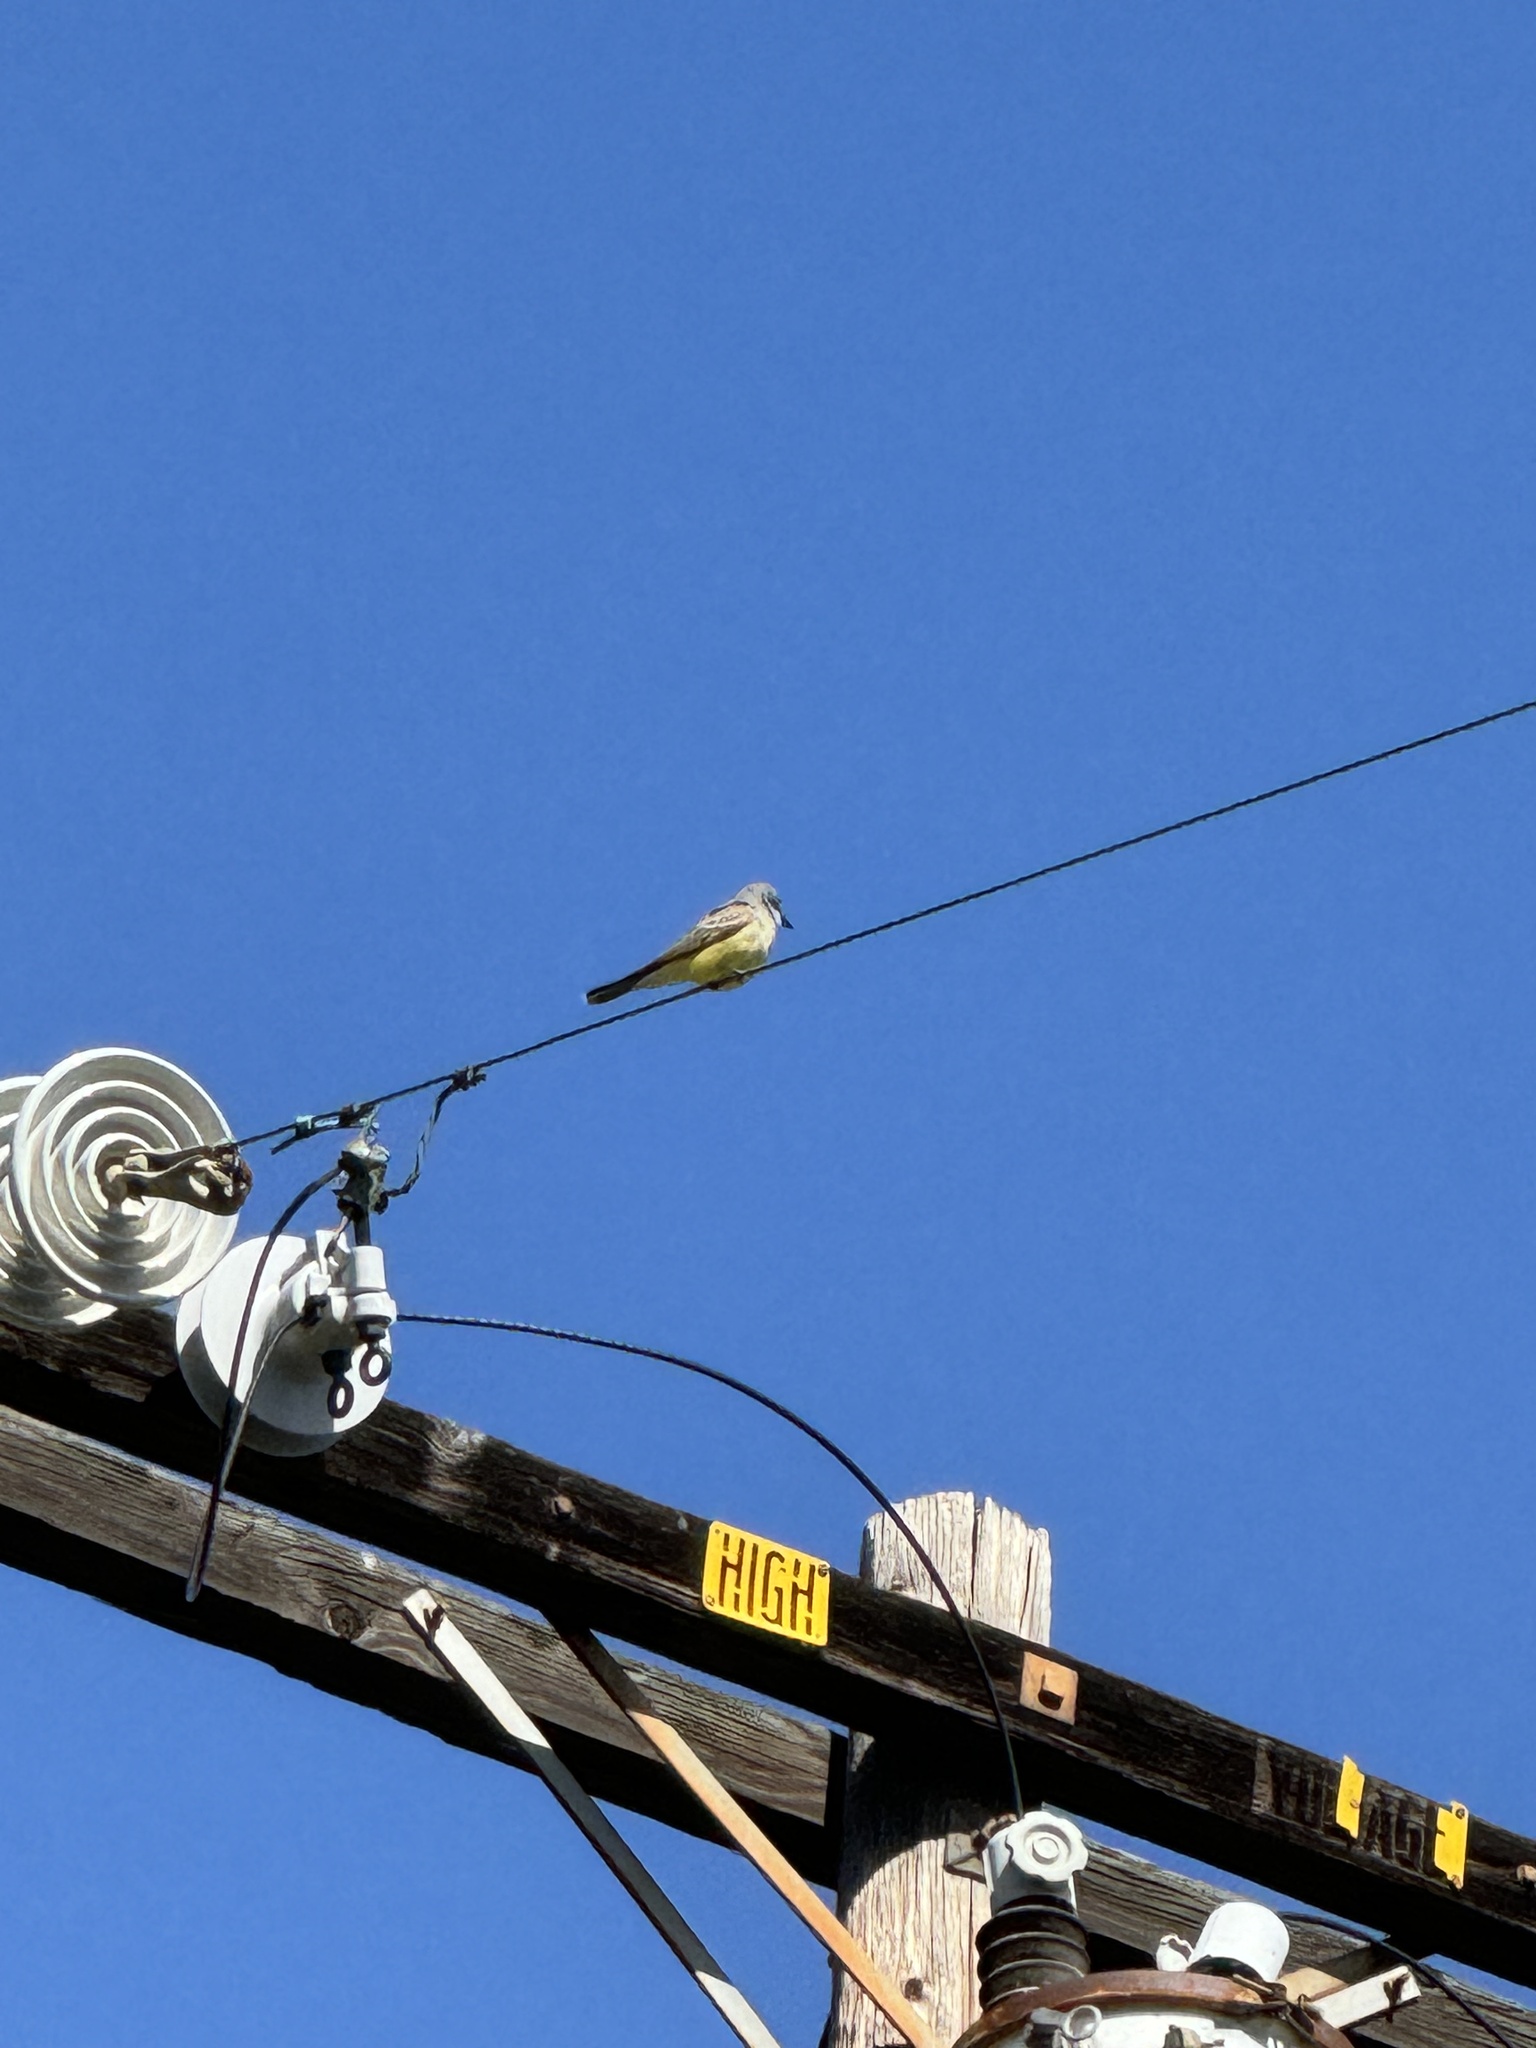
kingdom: Animalia
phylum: Chordata
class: Aves
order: Passeriformes
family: Tyrannidae
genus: Tyrannus
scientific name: Tyrannus vociferans
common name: Cassin's kingbird
